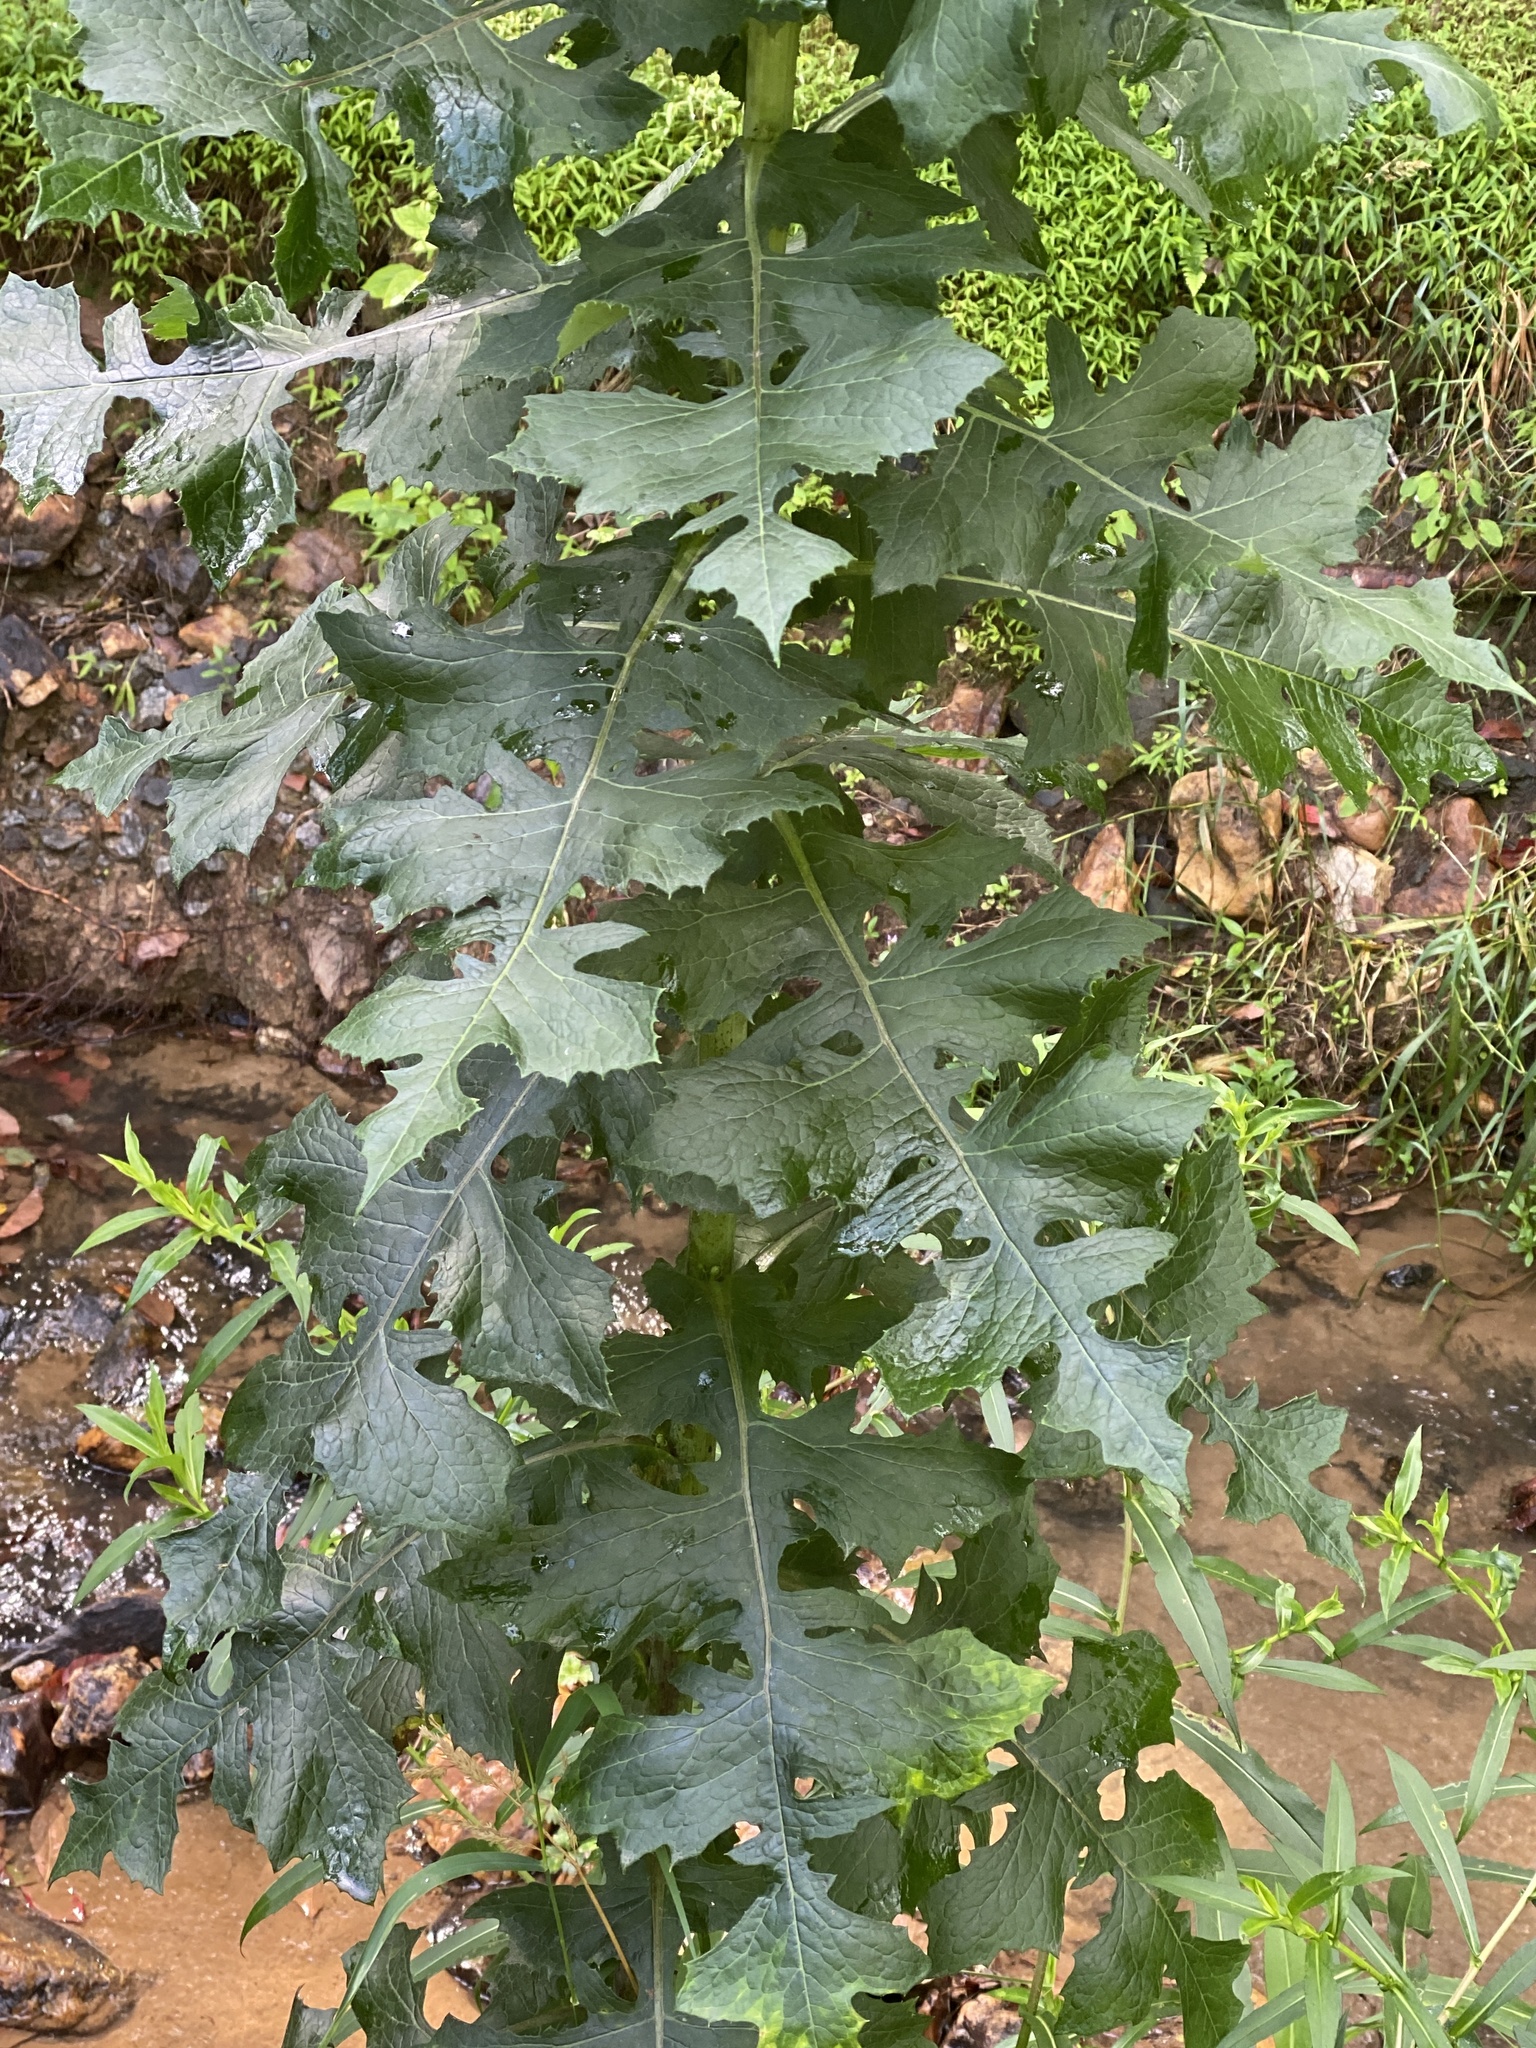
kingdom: Plantae
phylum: Tracheophyta
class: Magnoliopsida
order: Asterales
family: Asteraceae
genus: Lactuca
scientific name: Lactuca biennis
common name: Blue wood lettuce
